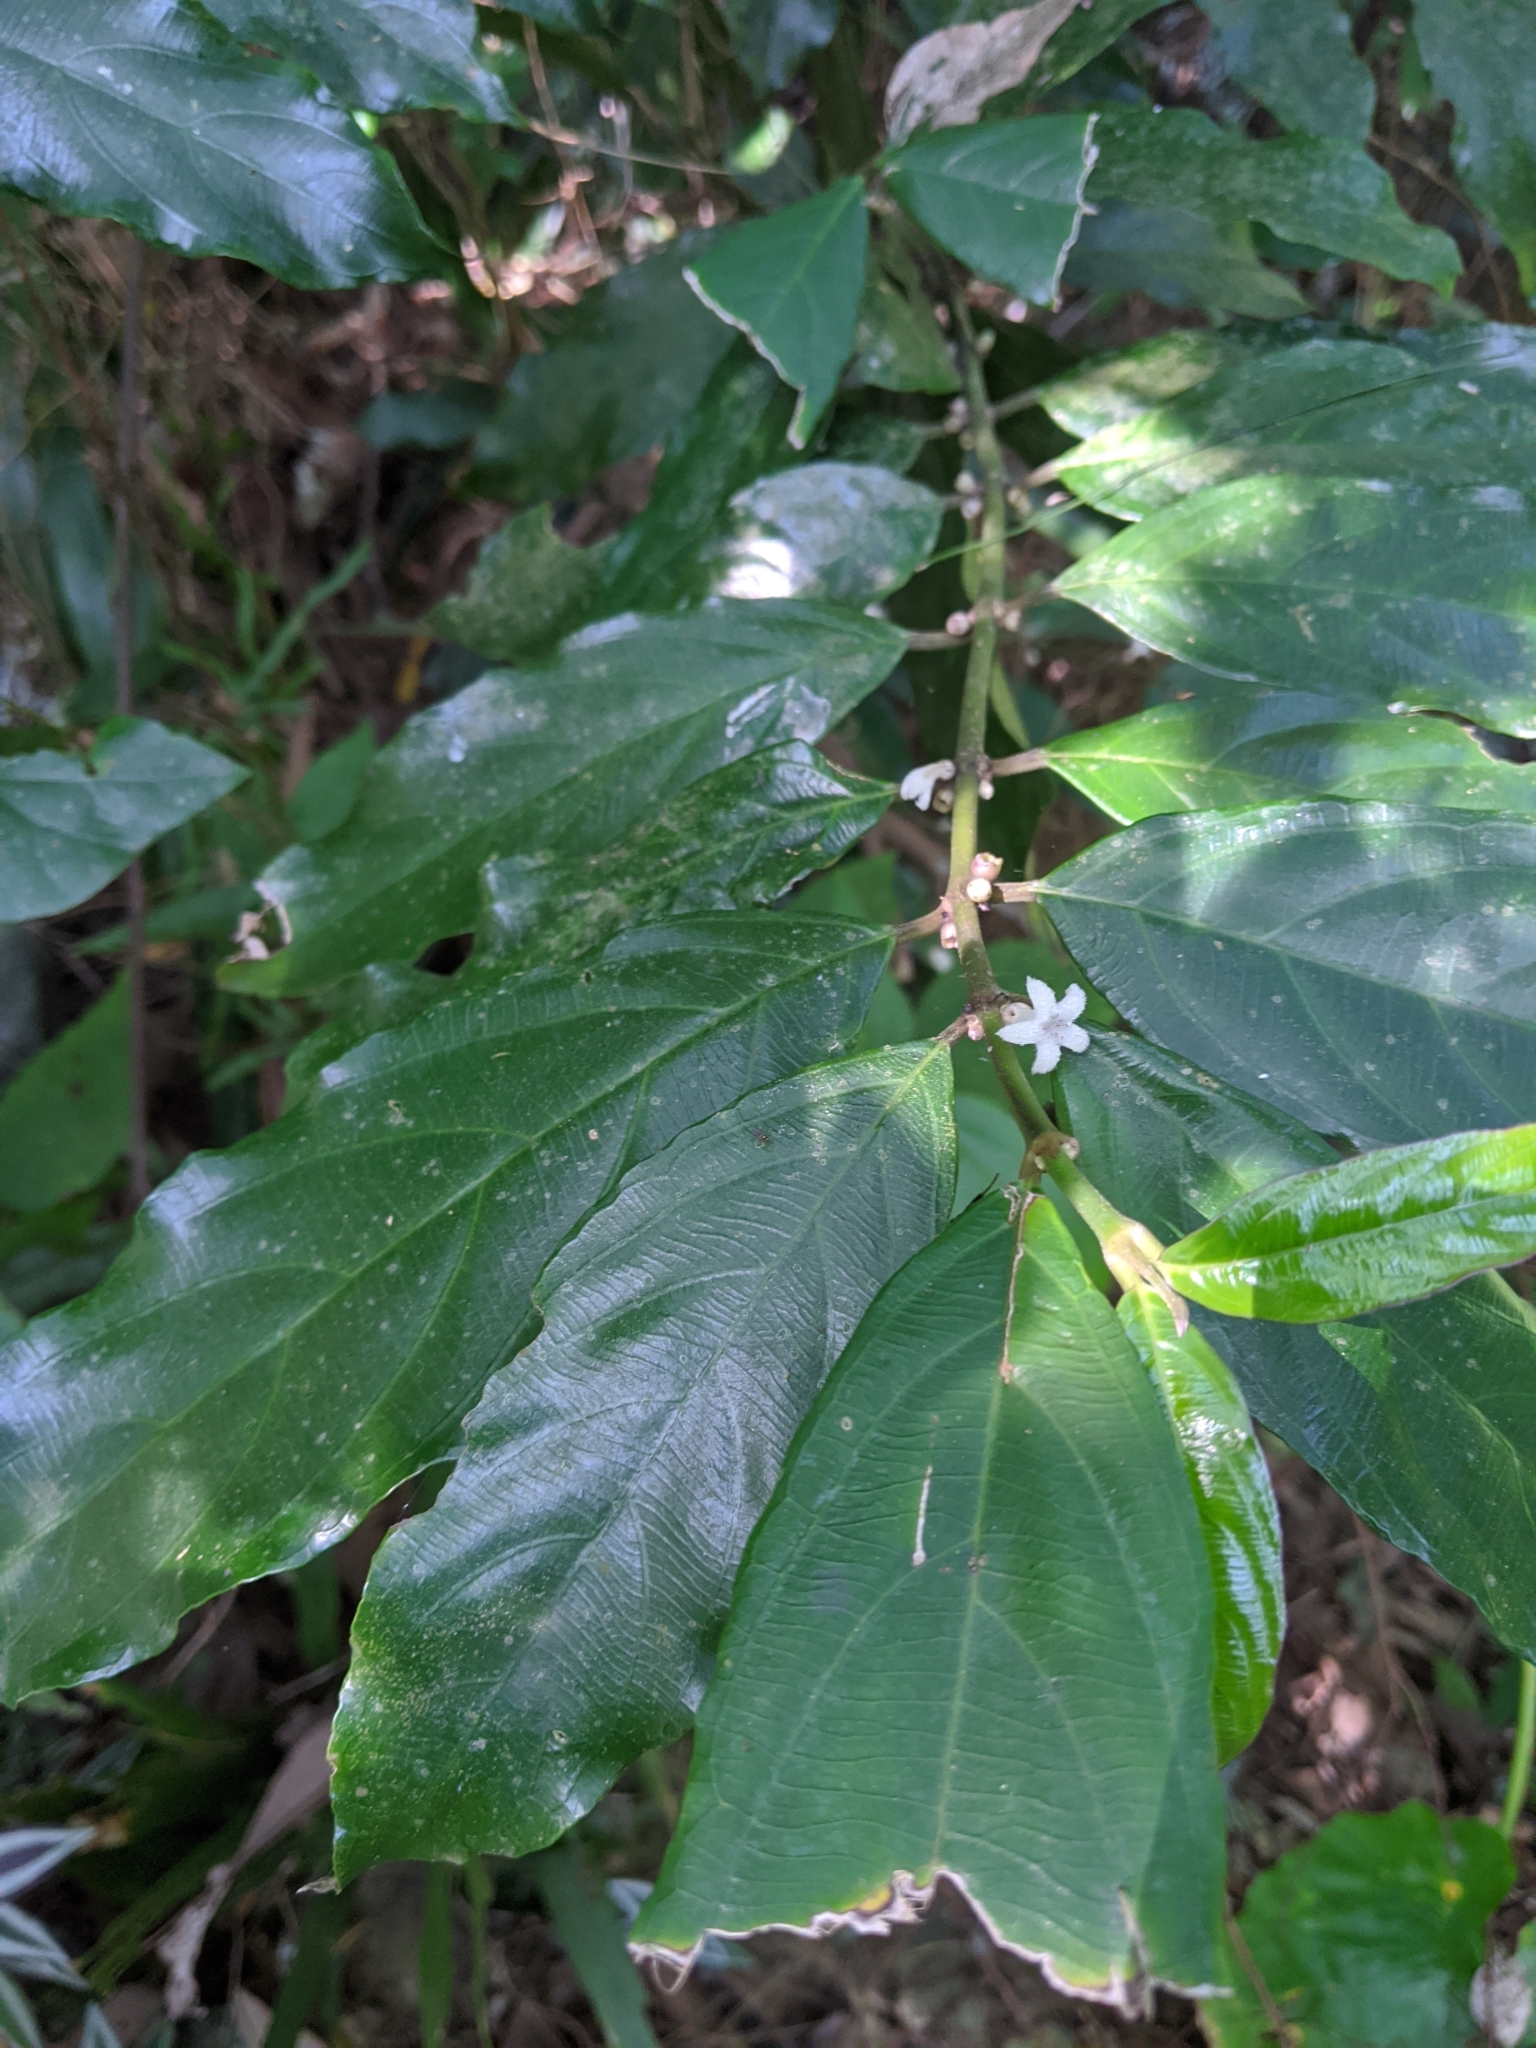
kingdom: Plantae
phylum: Tracheophyta
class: Magnoliopsida
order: Gentianales
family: Rubiaceae
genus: Lasianthus
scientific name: Lasianthus verticillatus
